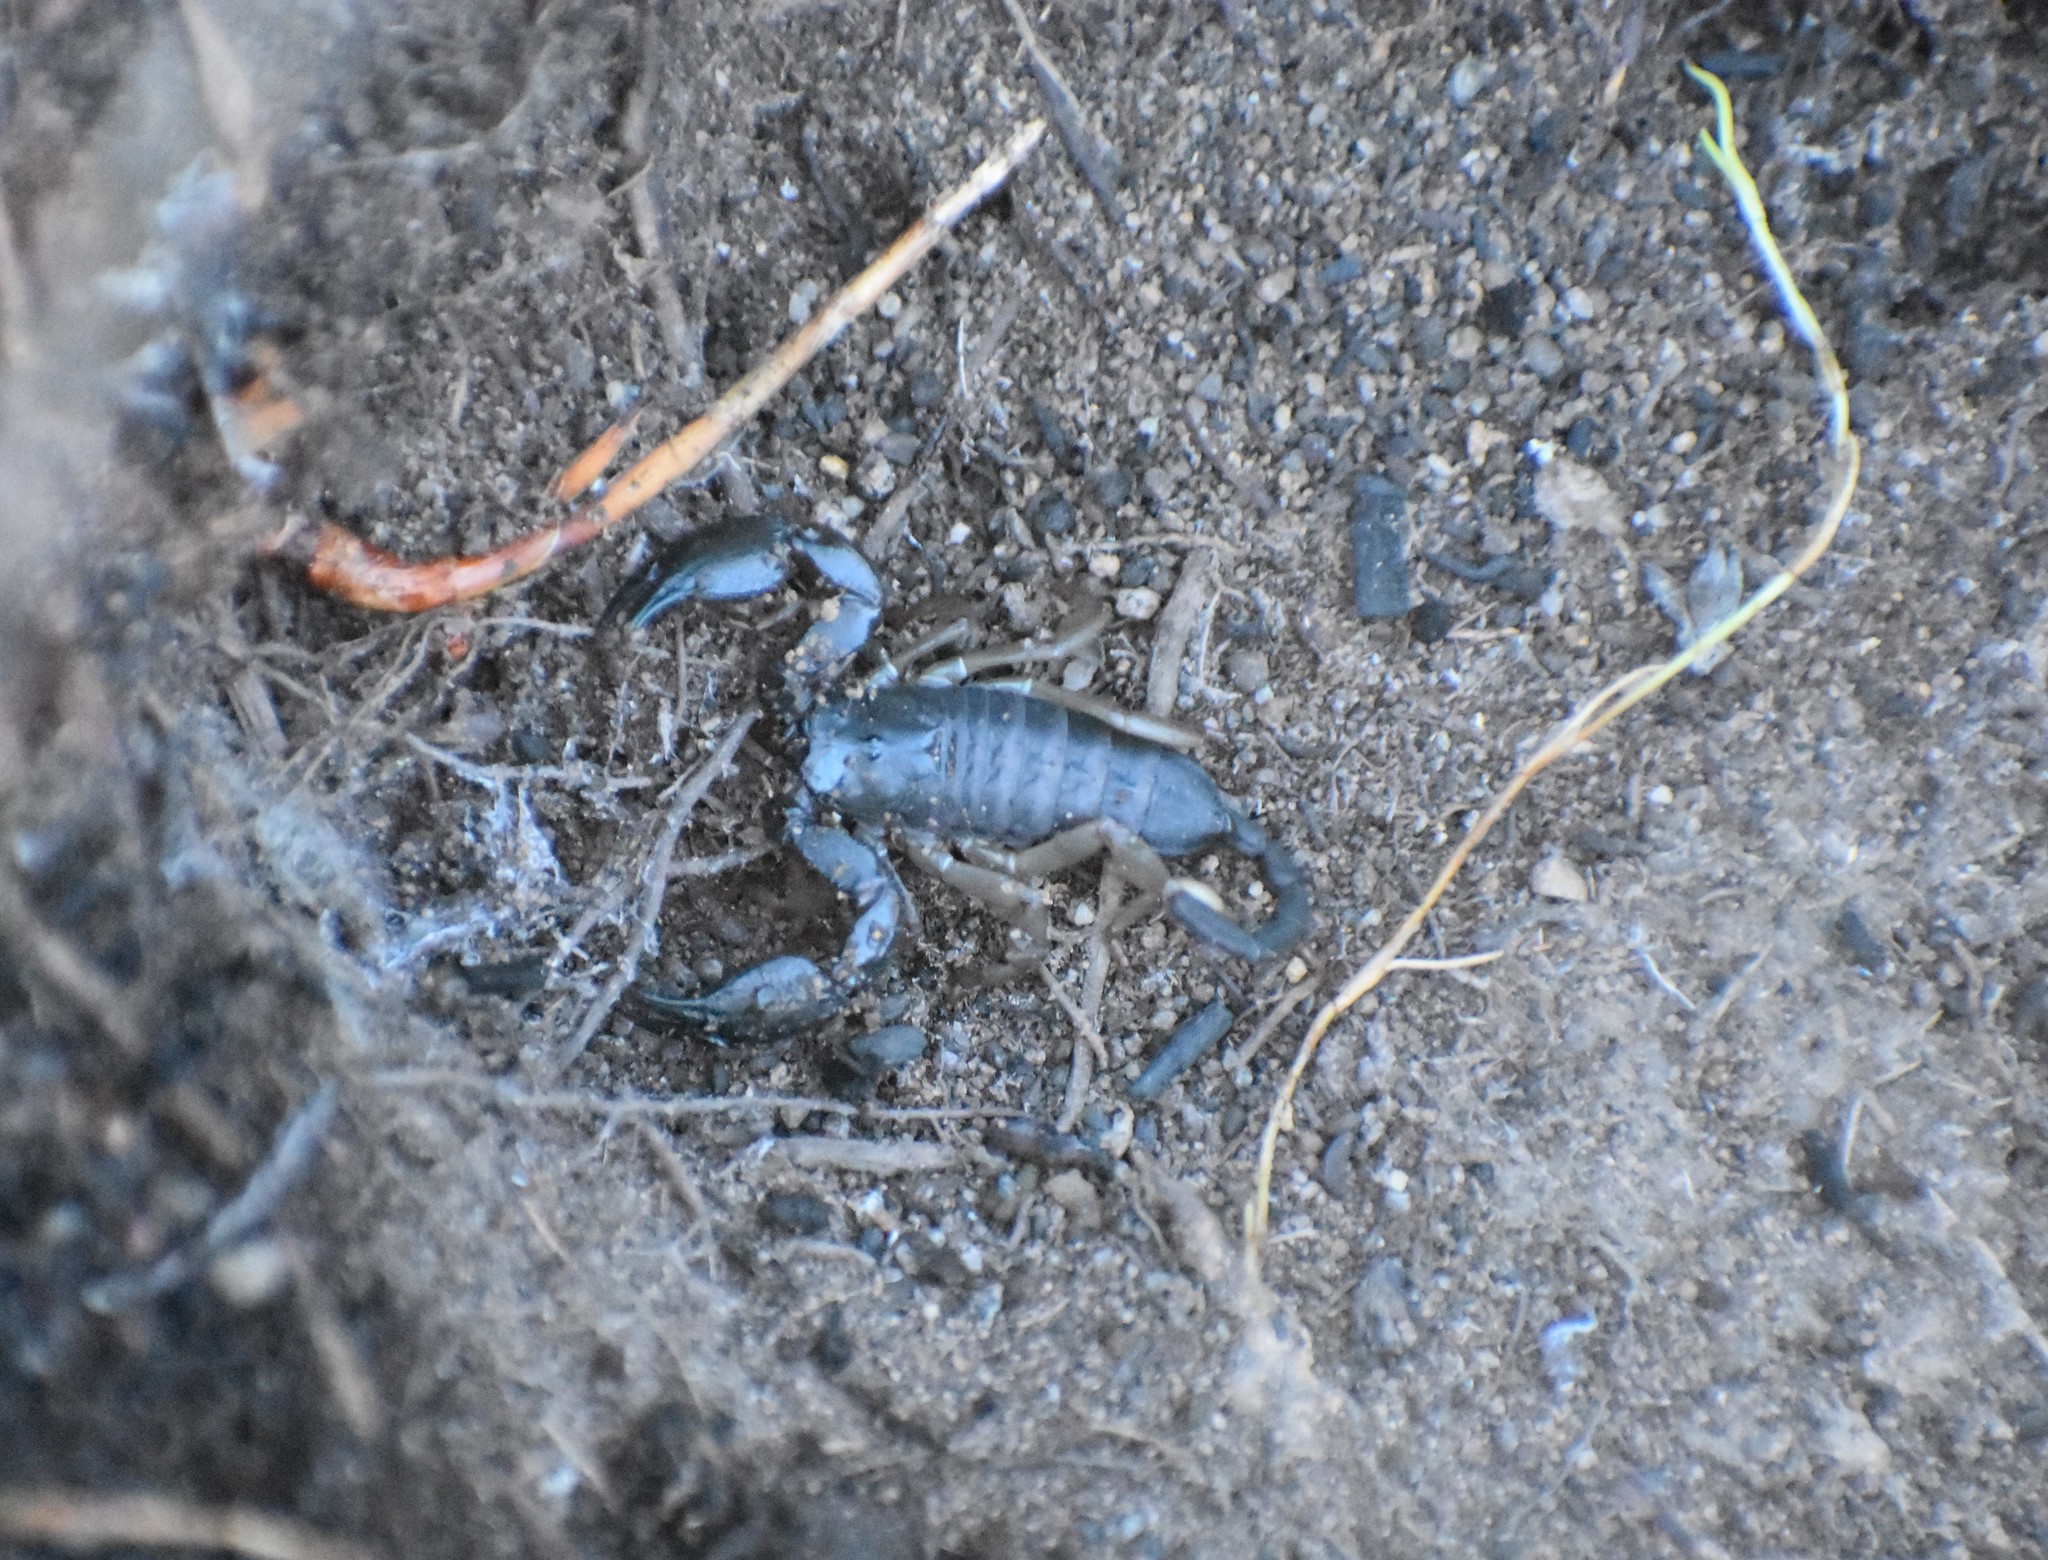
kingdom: Animalia
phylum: Arthropoda
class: Arachnida
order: Scorpiones
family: Hormuridae
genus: Opisthacanthus
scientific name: Opisthacanthus diremptus
